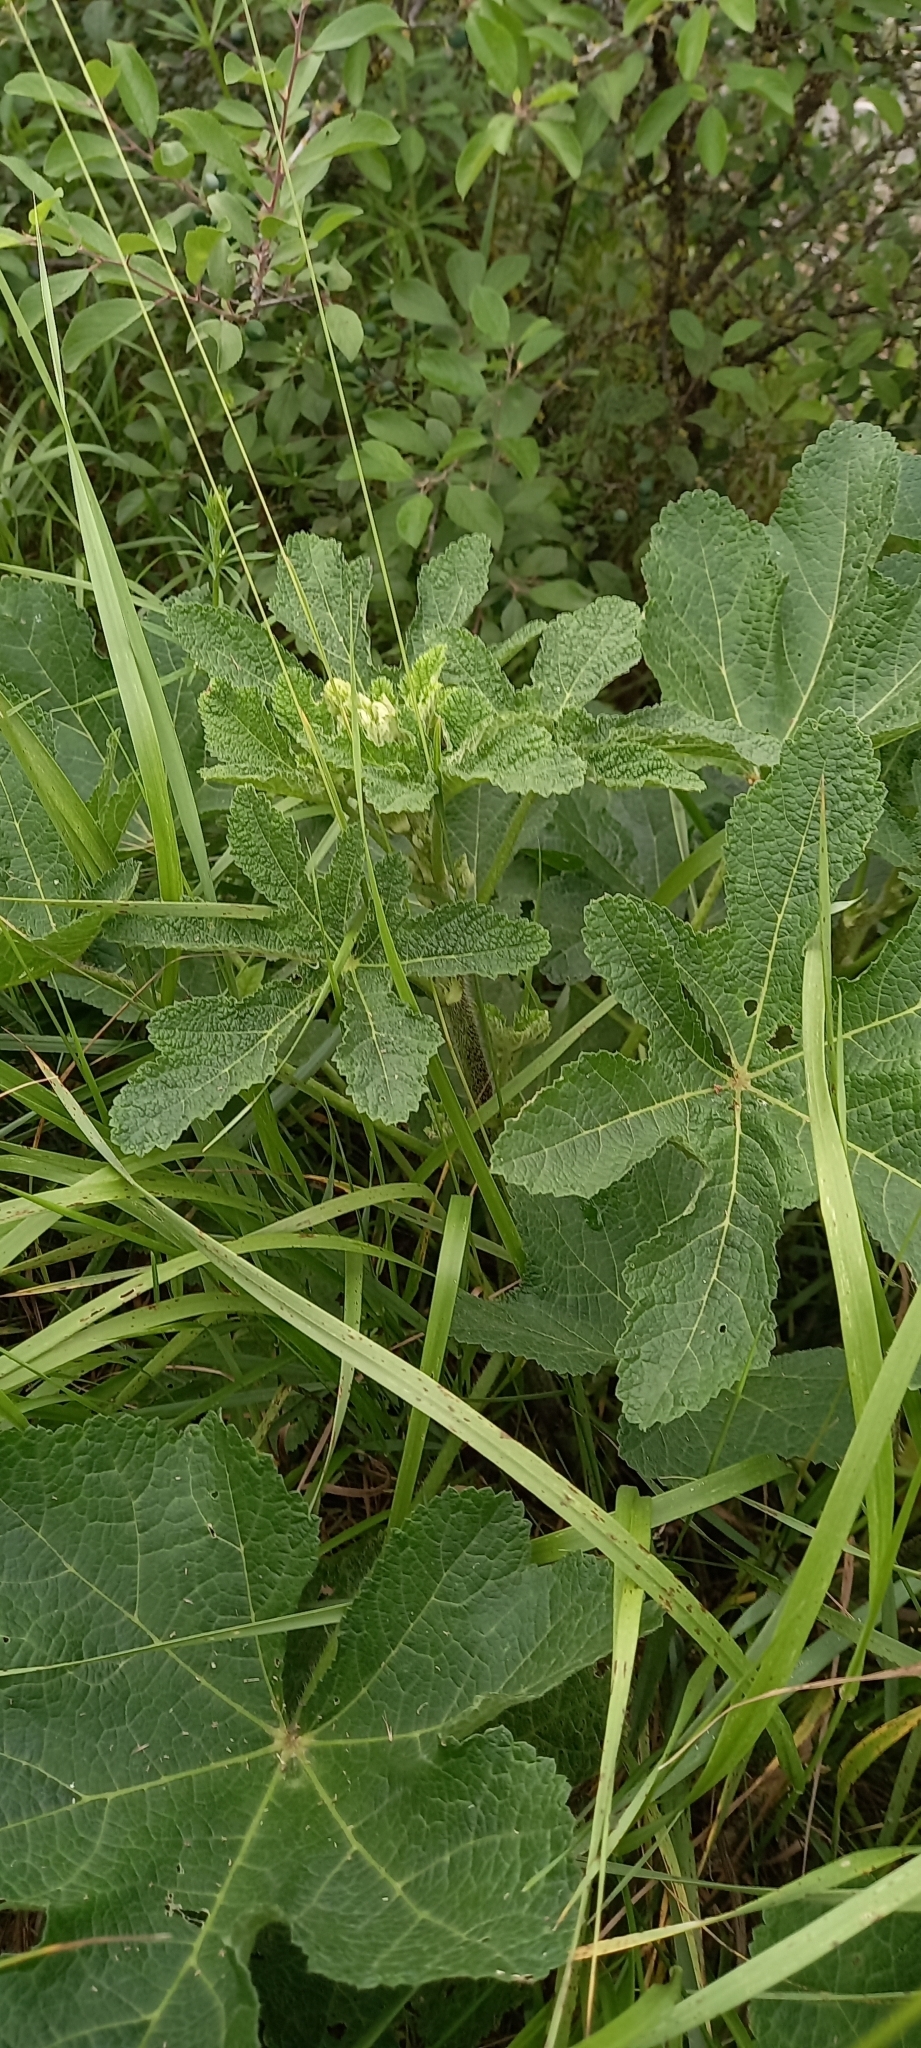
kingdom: Plantae
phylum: Tracheophyta
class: Magnoliopsida
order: Malvales
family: Malvaceae
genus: Alcea
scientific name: Alcea rugosa
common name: Russian hollyhock
